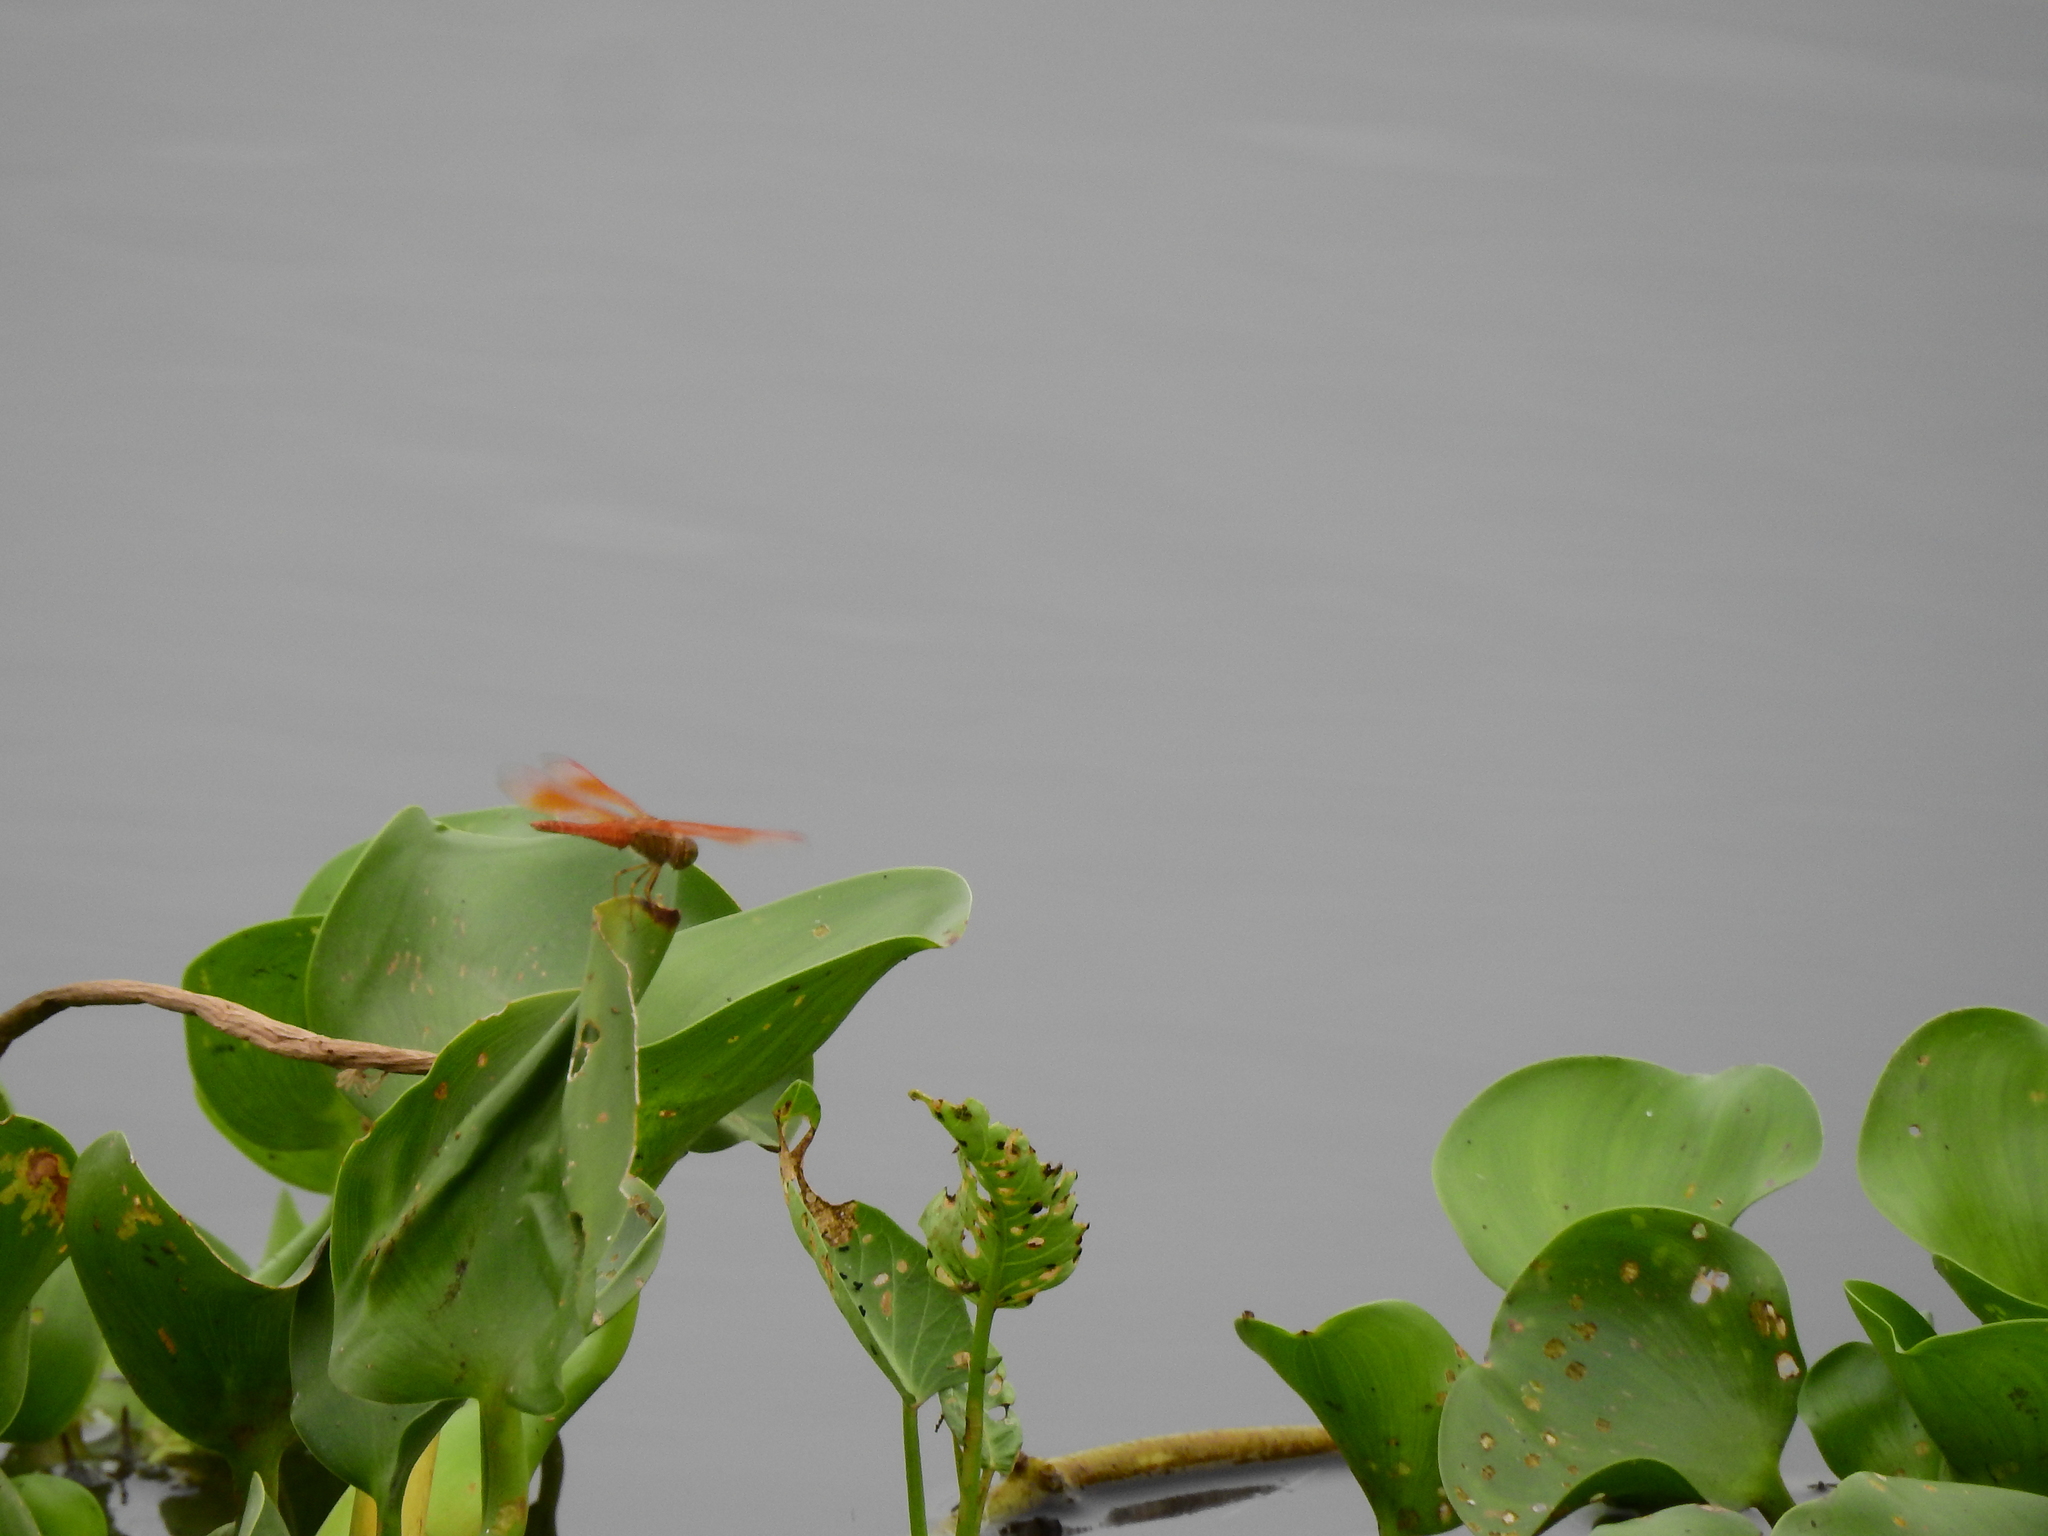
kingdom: Animalia
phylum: Arthropoda
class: Insecta
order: Odonata
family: Libellulidae
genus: Brachythemis
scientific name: Brachythemis contaminata
